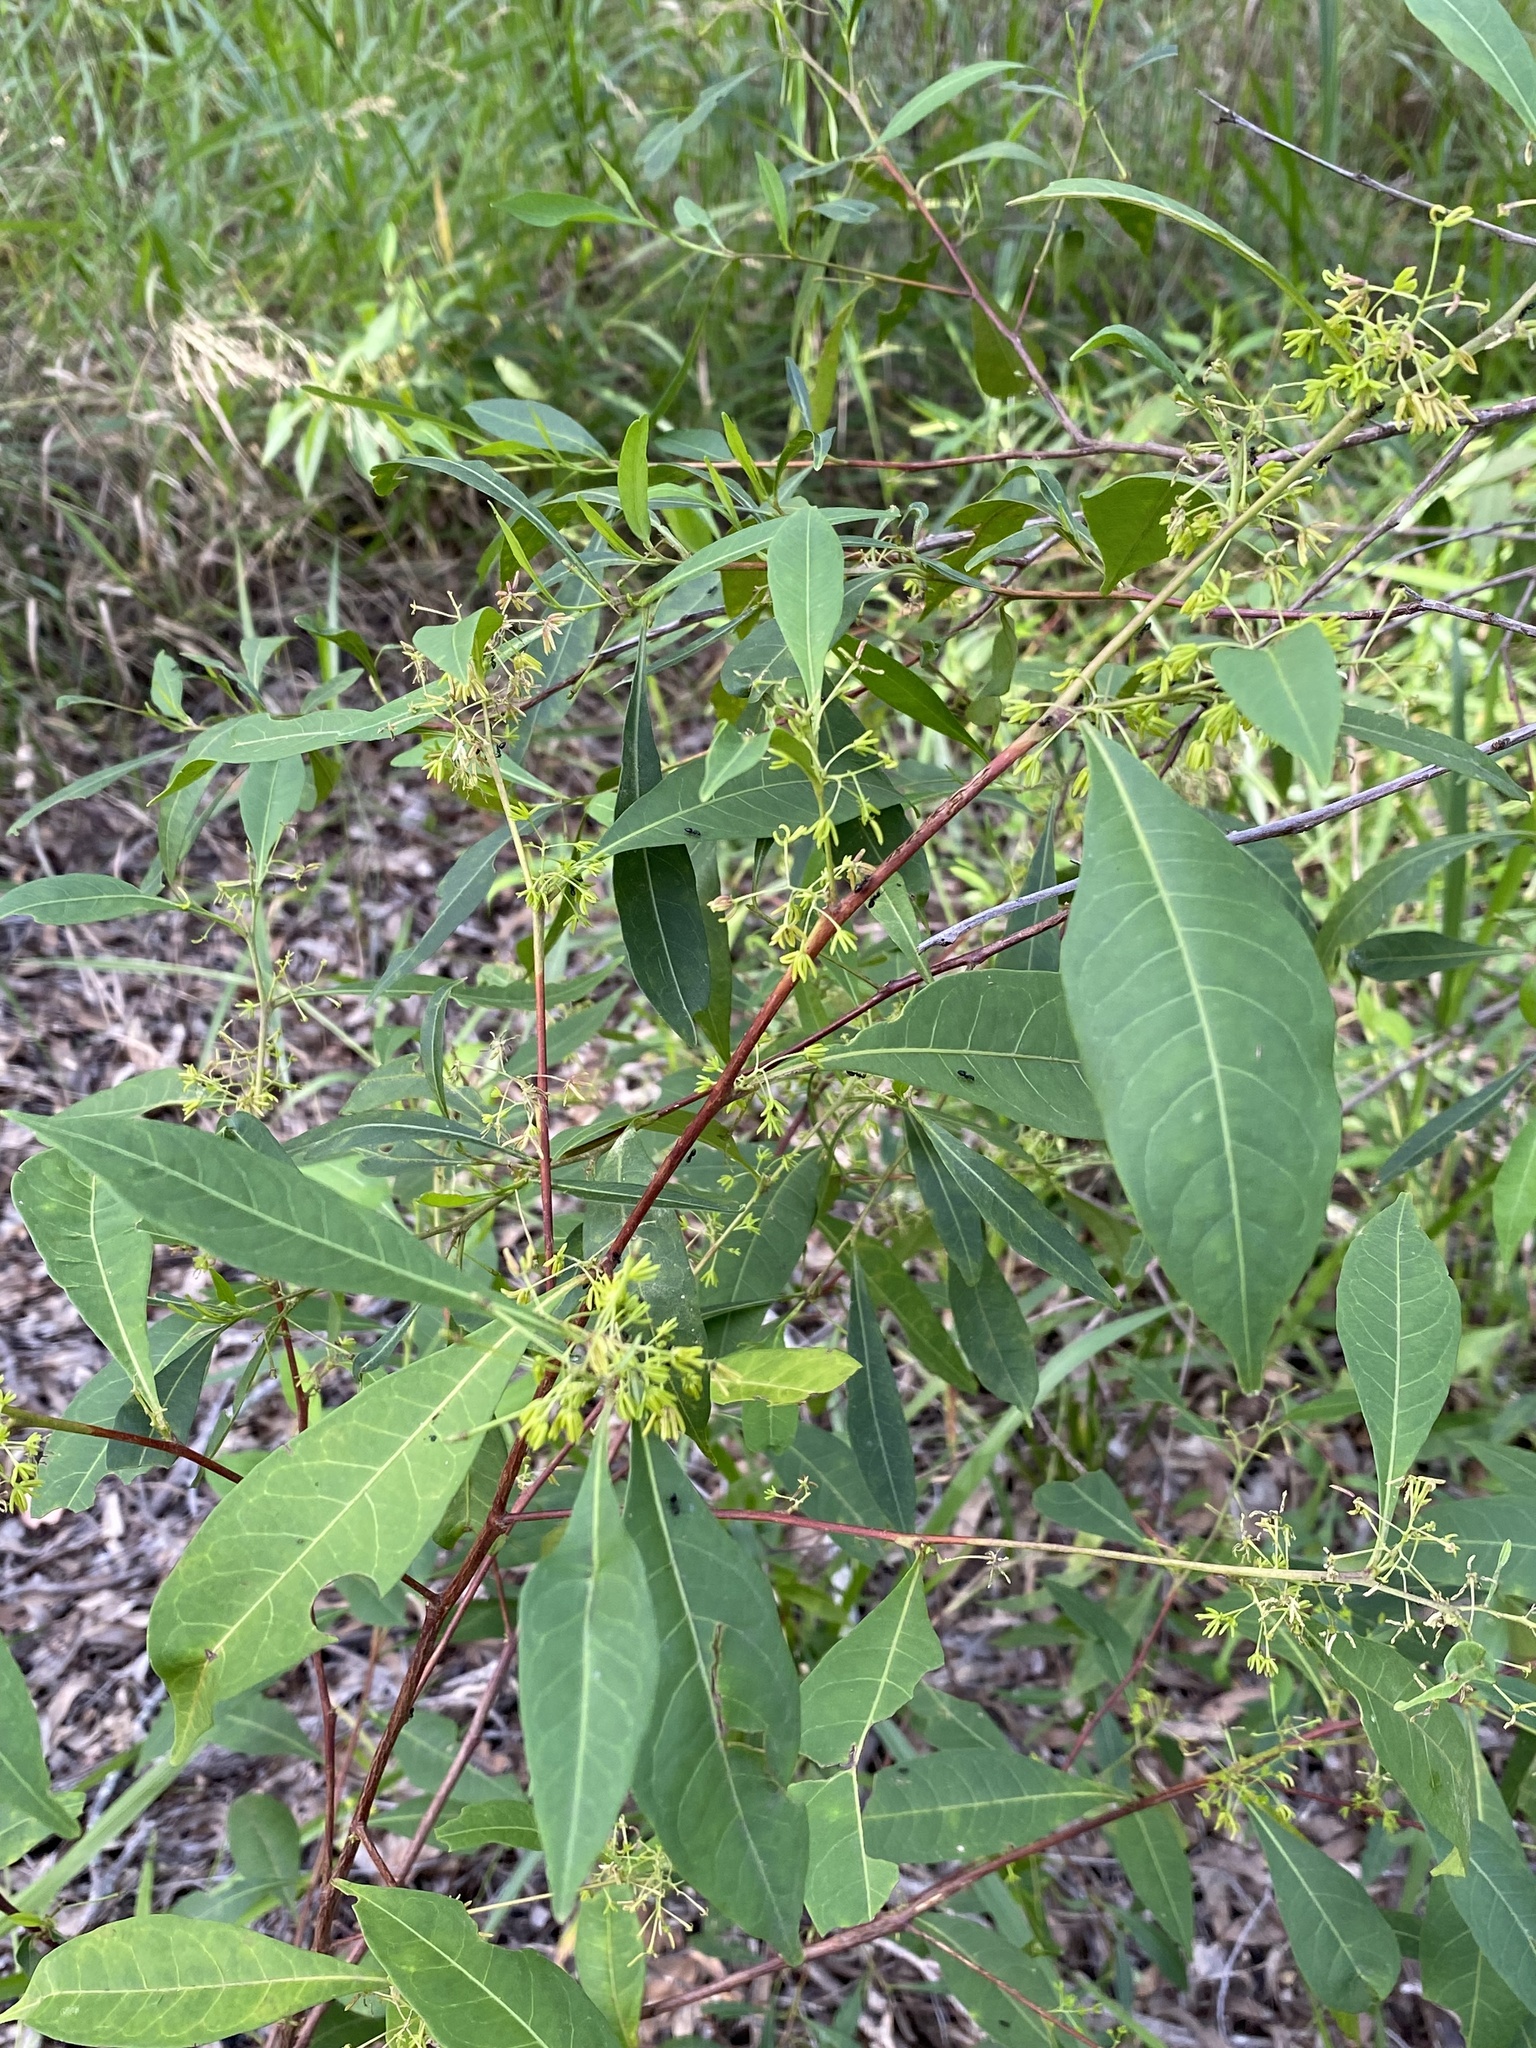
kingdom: Plantae
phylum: Tracheophyta
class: Magnoliopsida
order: Sapindales
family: Sapindaceae
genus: Dodonaea
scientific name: Dodonaea triquetra
